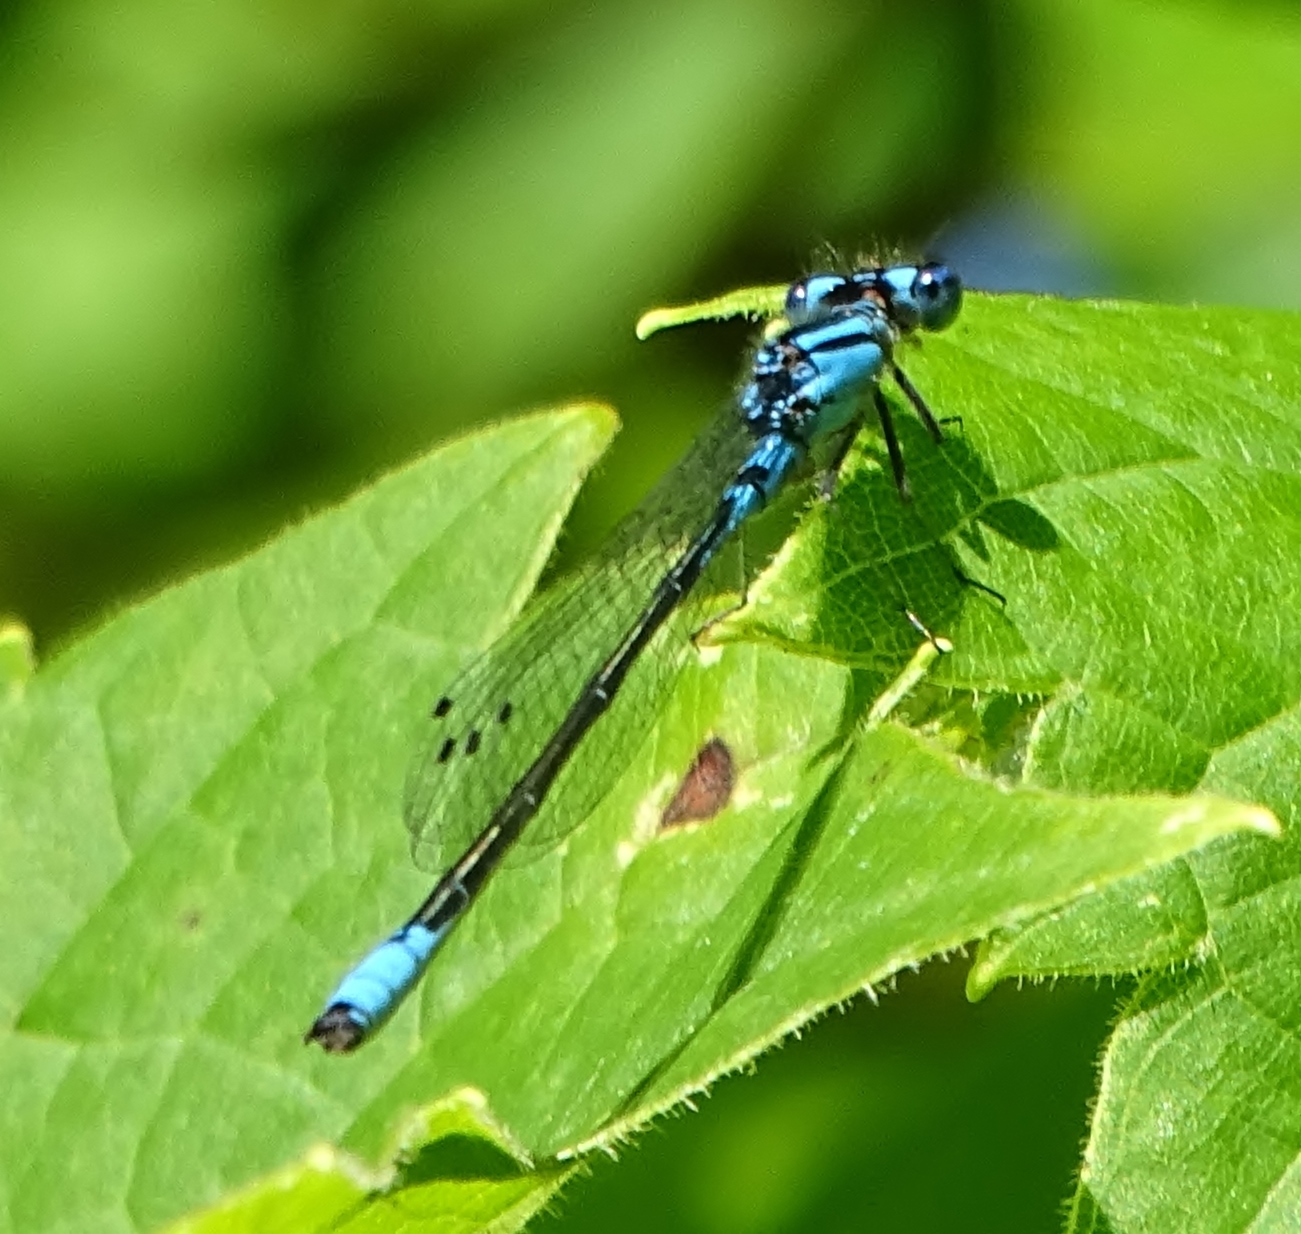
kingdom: Animalia
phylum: Arthropoda
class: Insecta
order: Odonata
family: Coenagrionidae
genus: Enallagma
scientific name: Enallagma aspersum
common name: Azure bluet
